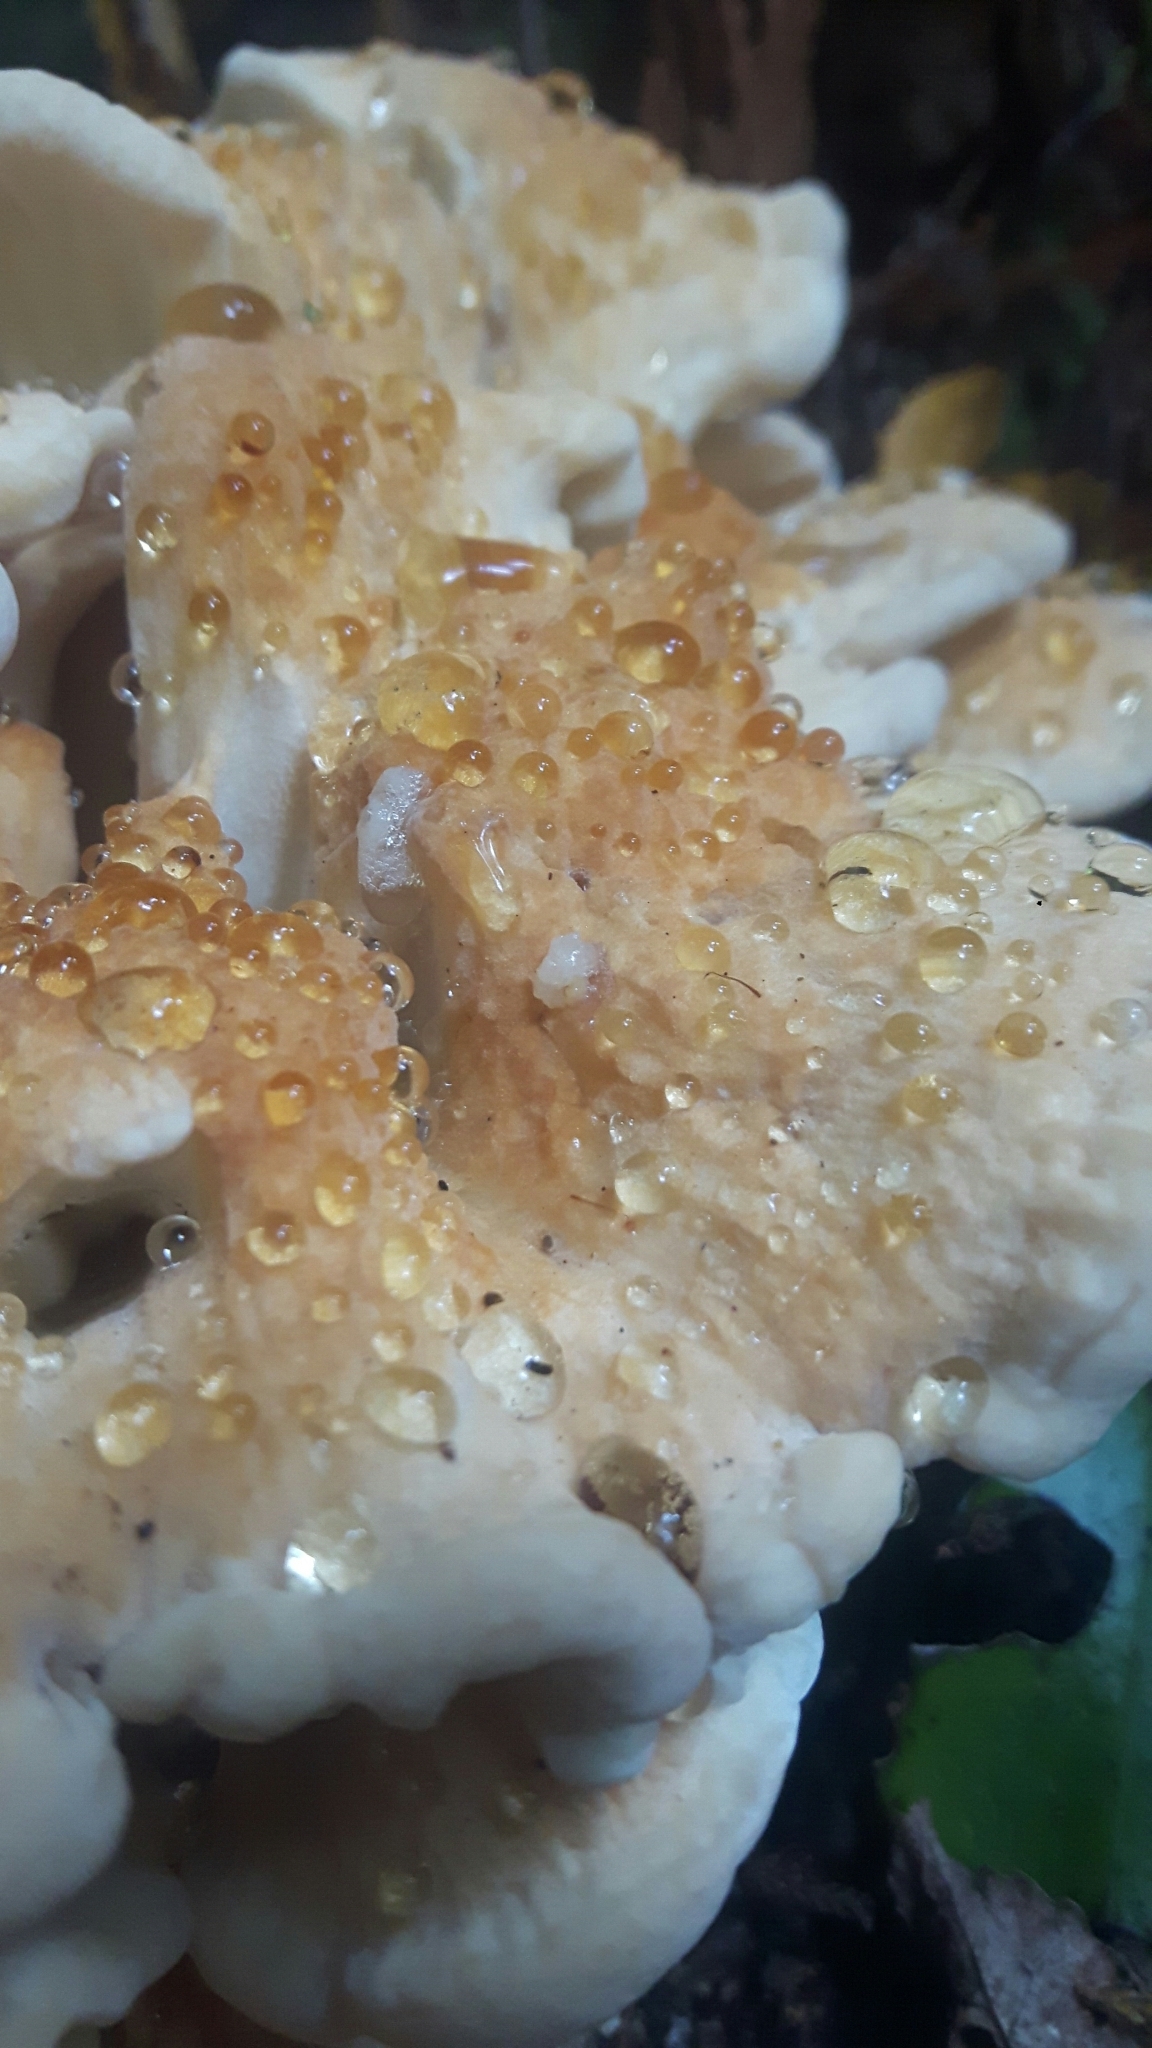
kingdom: Fungi
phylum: Basidiomycota
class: Agaricomycetes
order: Russulales
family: Bondarzewiaceae
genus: Bondarzewia
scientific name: Bondarzewia kirkii
